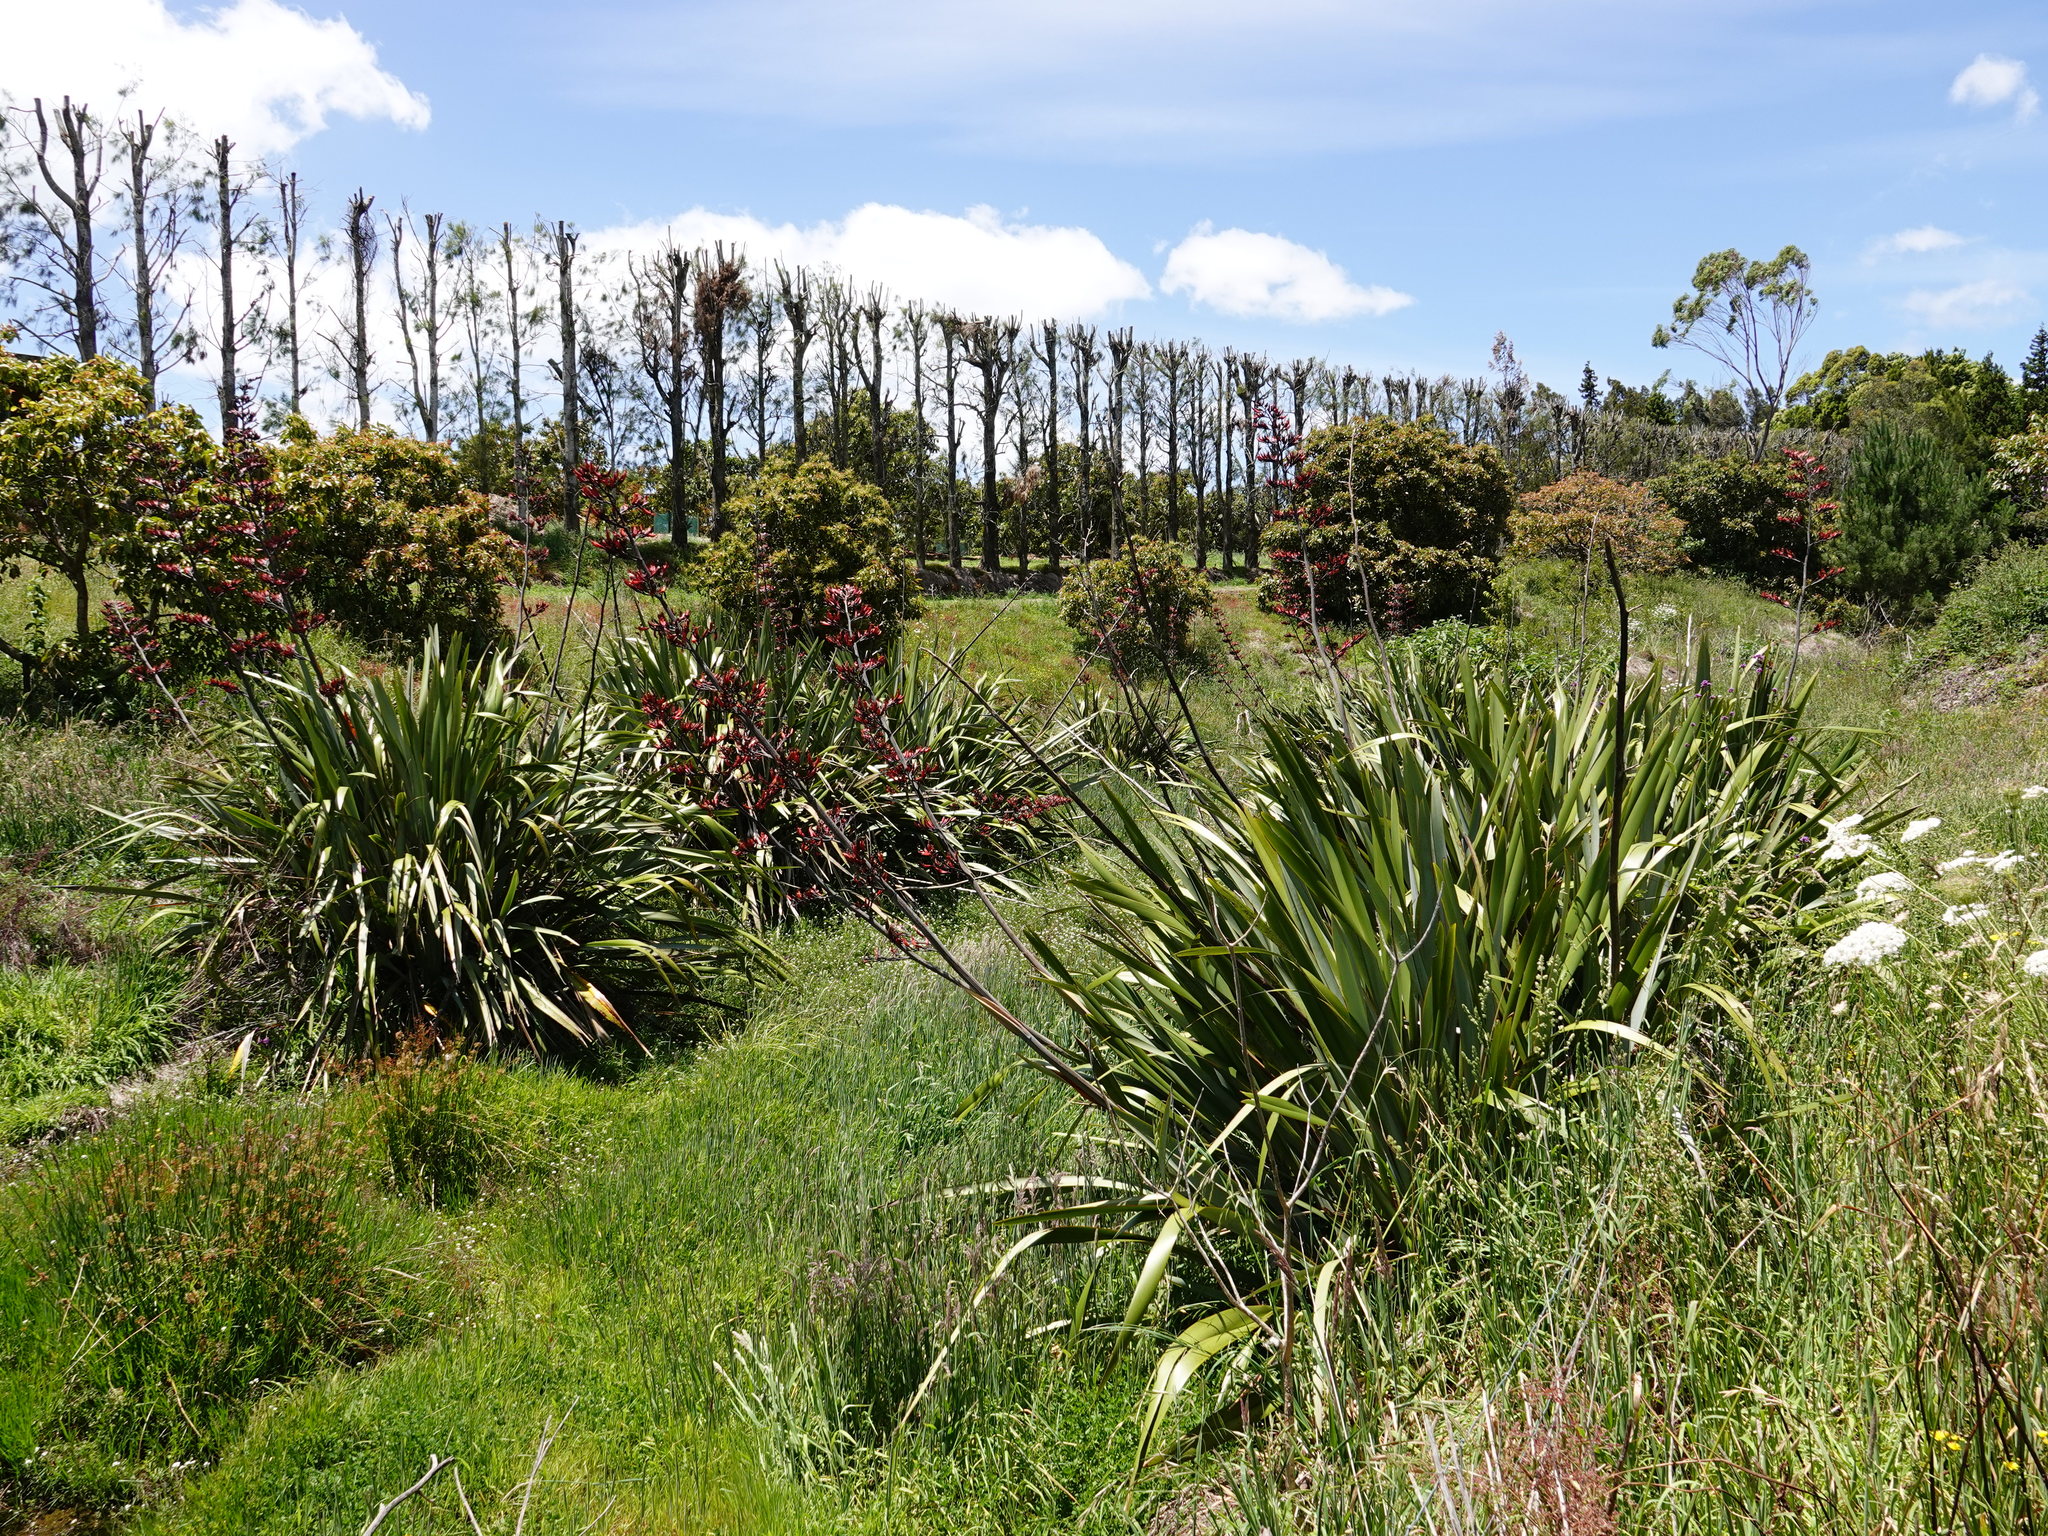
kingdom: Plantae
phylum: Tracheophyta
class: Liliopsida
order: Asparagales
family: Asphodelaceae
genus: Phormium
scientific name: Phormium tenax
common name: New zealand flax
